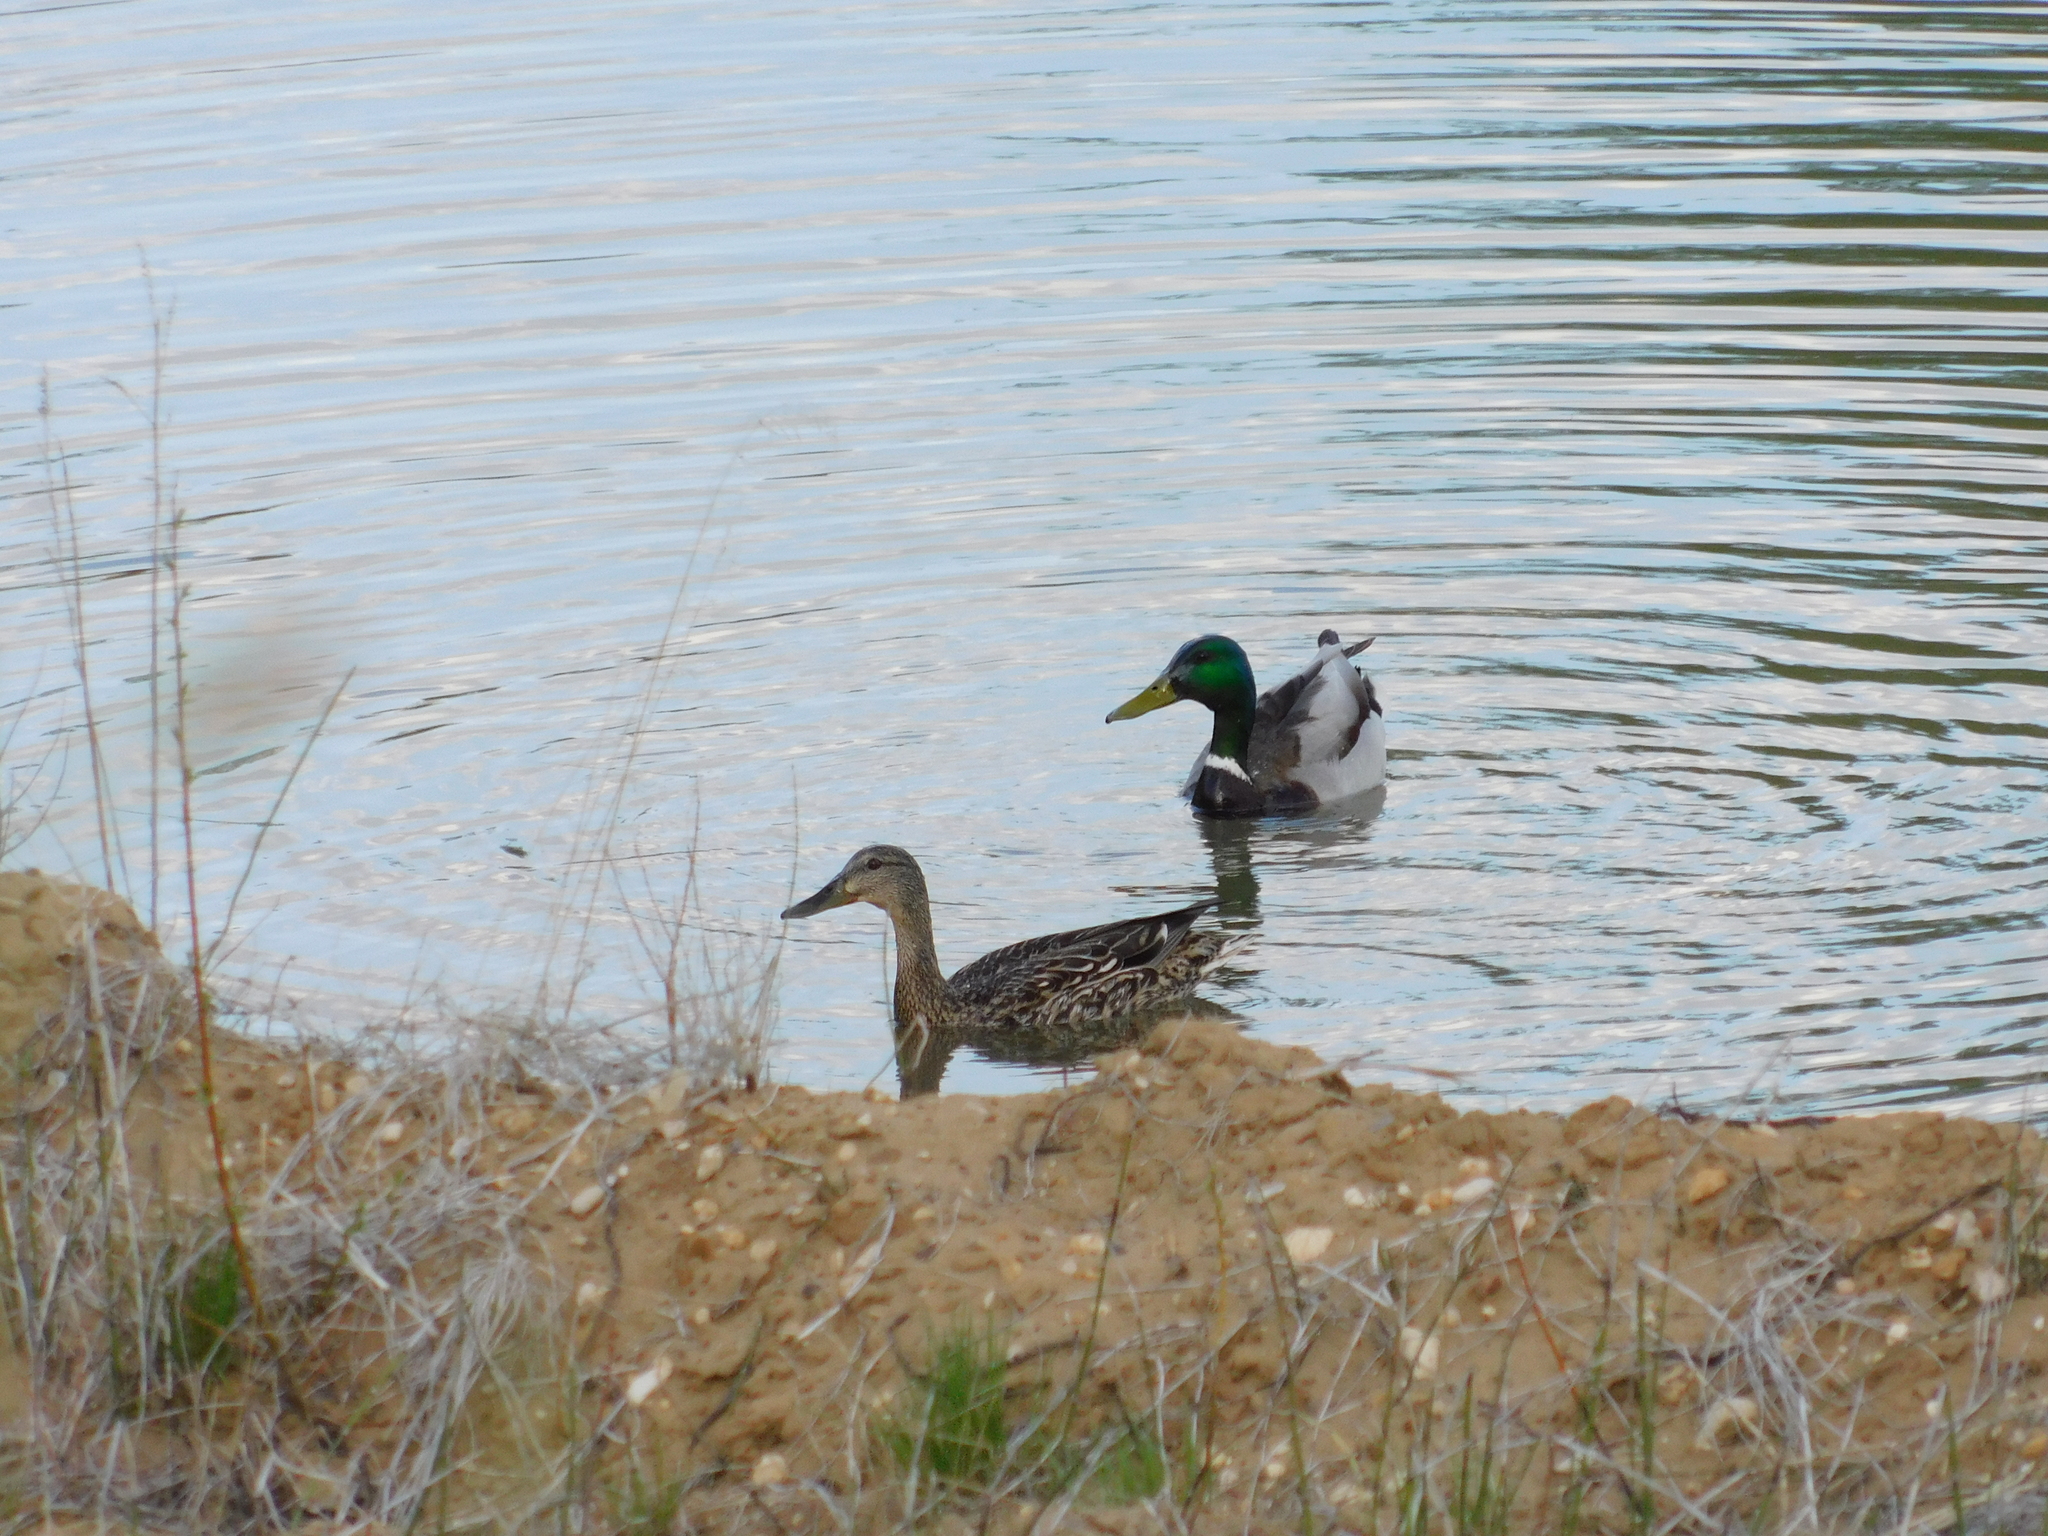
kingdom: Animalia
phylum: Chordata
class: Aves
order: Anseriformes
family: Anatidae
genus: Anas
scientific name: Anas platyrhynchos
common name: Mallard
